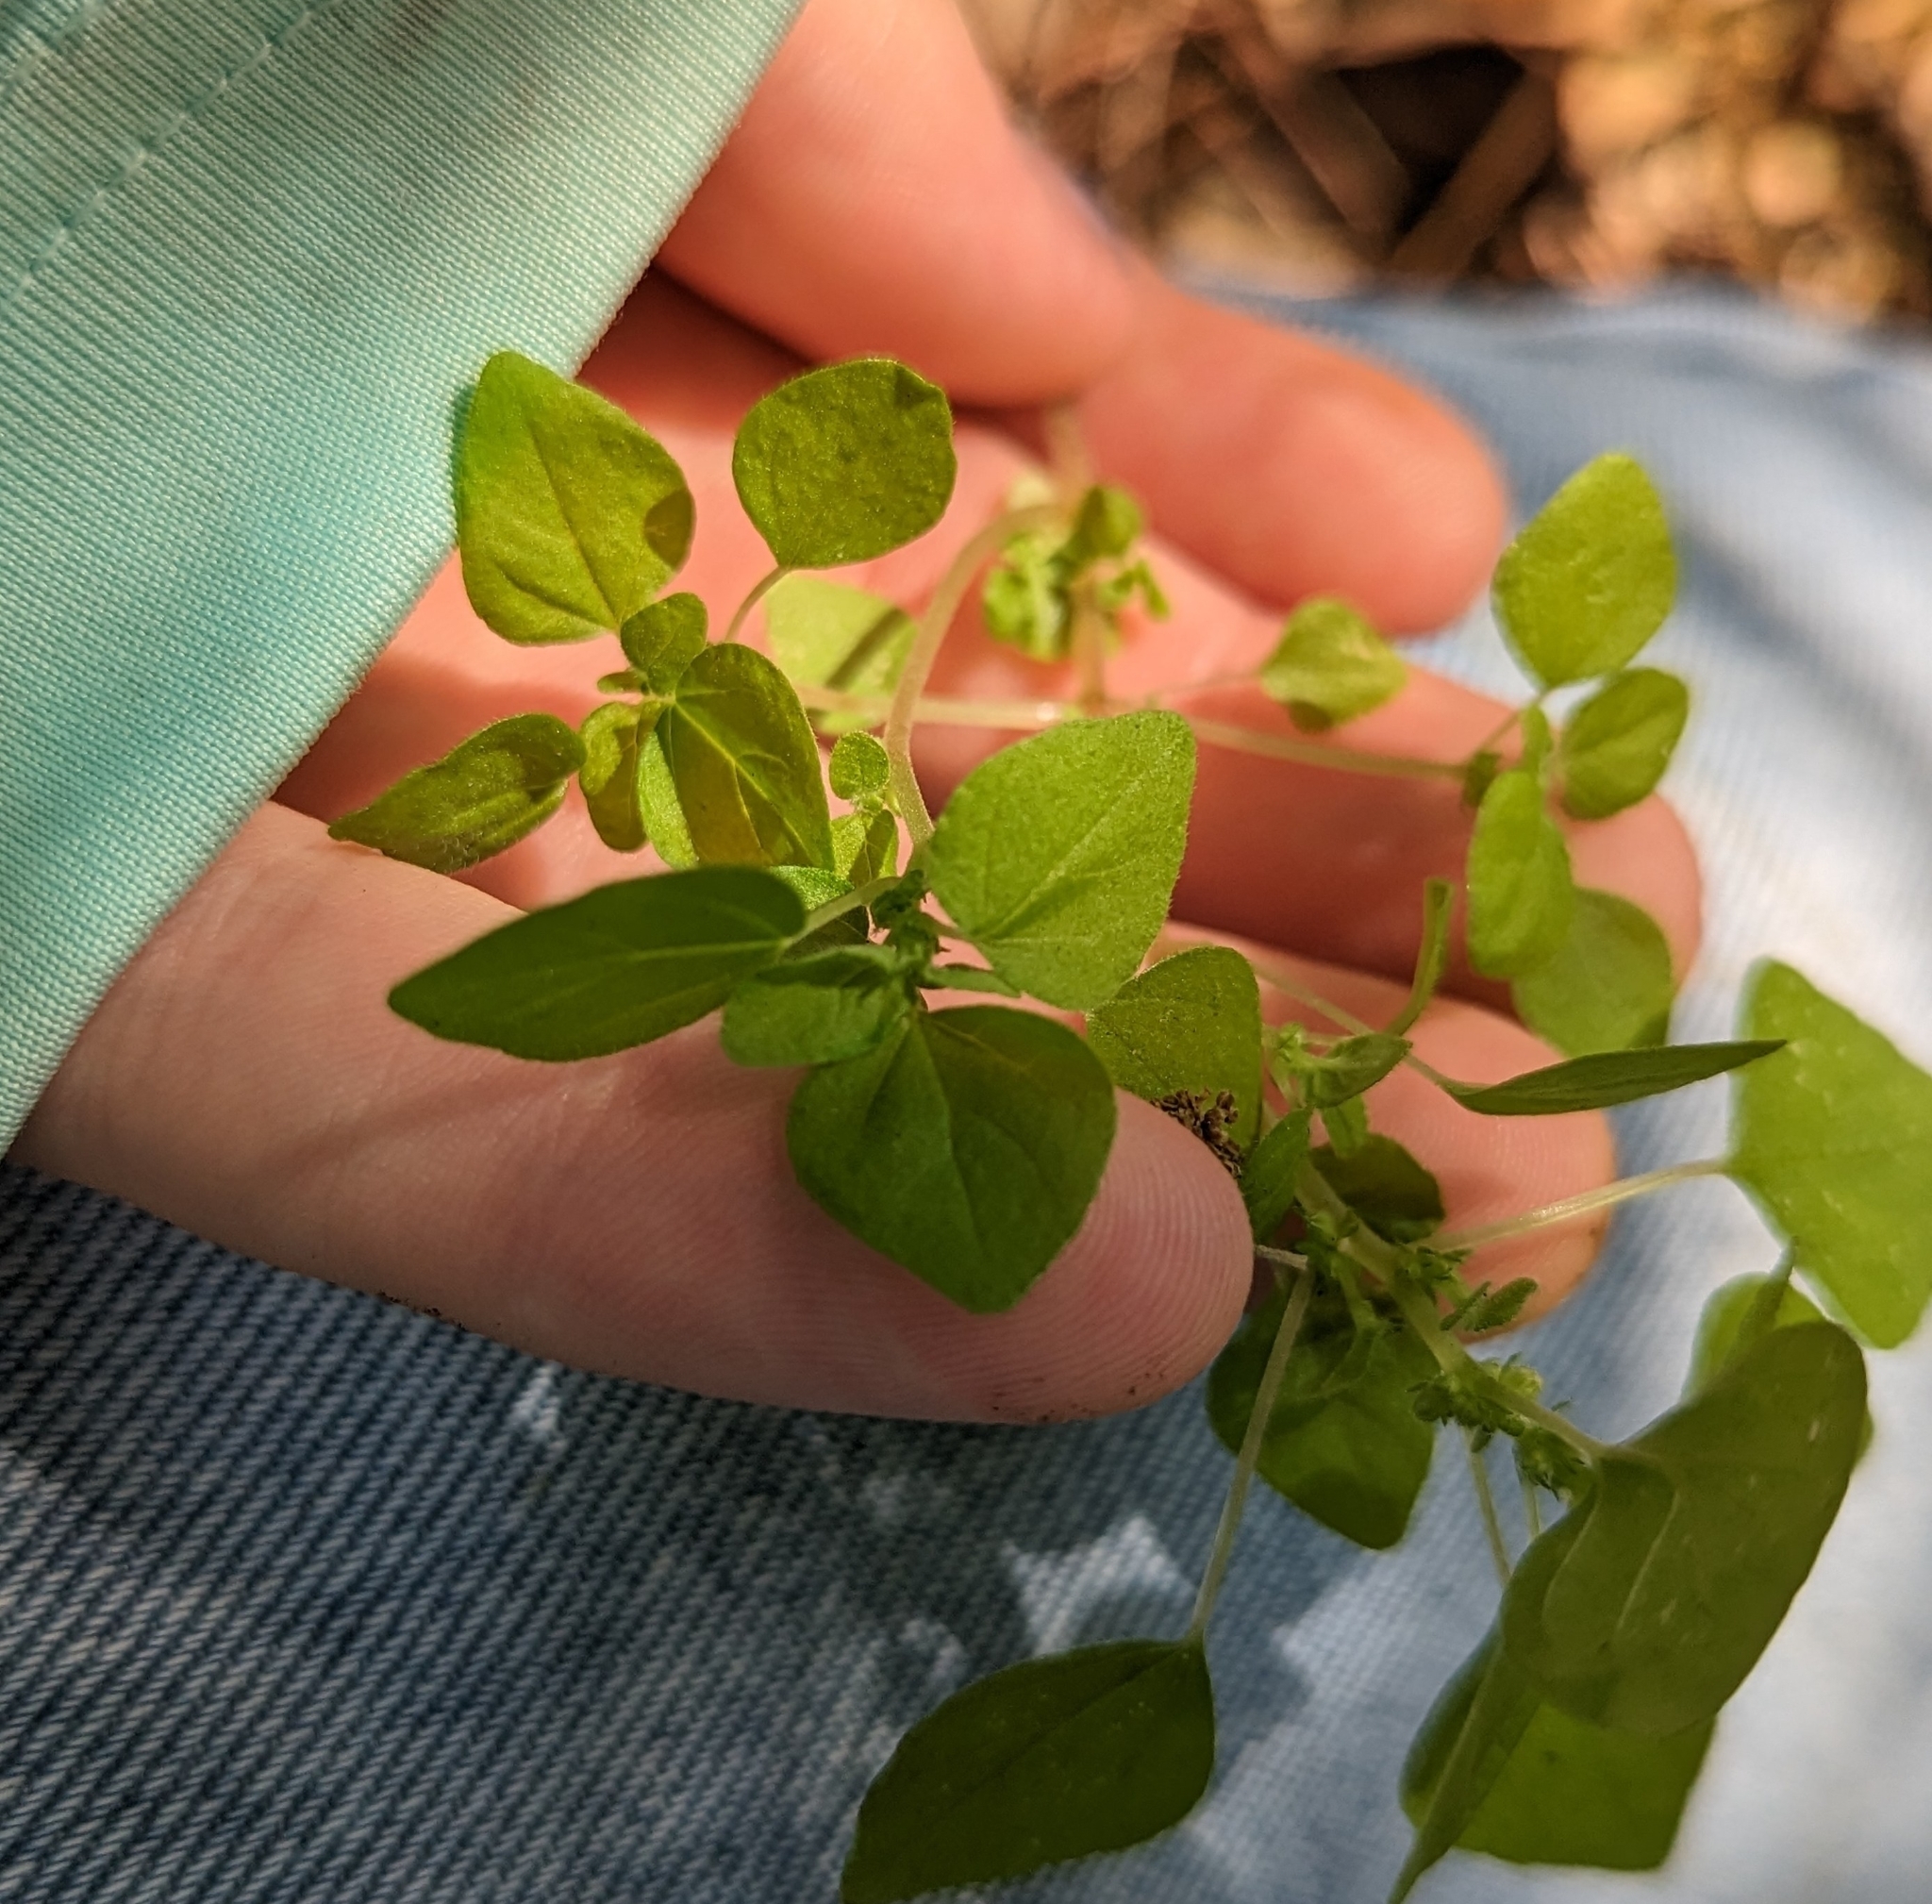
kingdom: Plantae
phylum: Tracheophyta
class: Magnoliopsida
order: Rosales
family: Urticaceae
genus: Parietaria
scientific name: Parietaria floridana
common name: Florida pellitory
